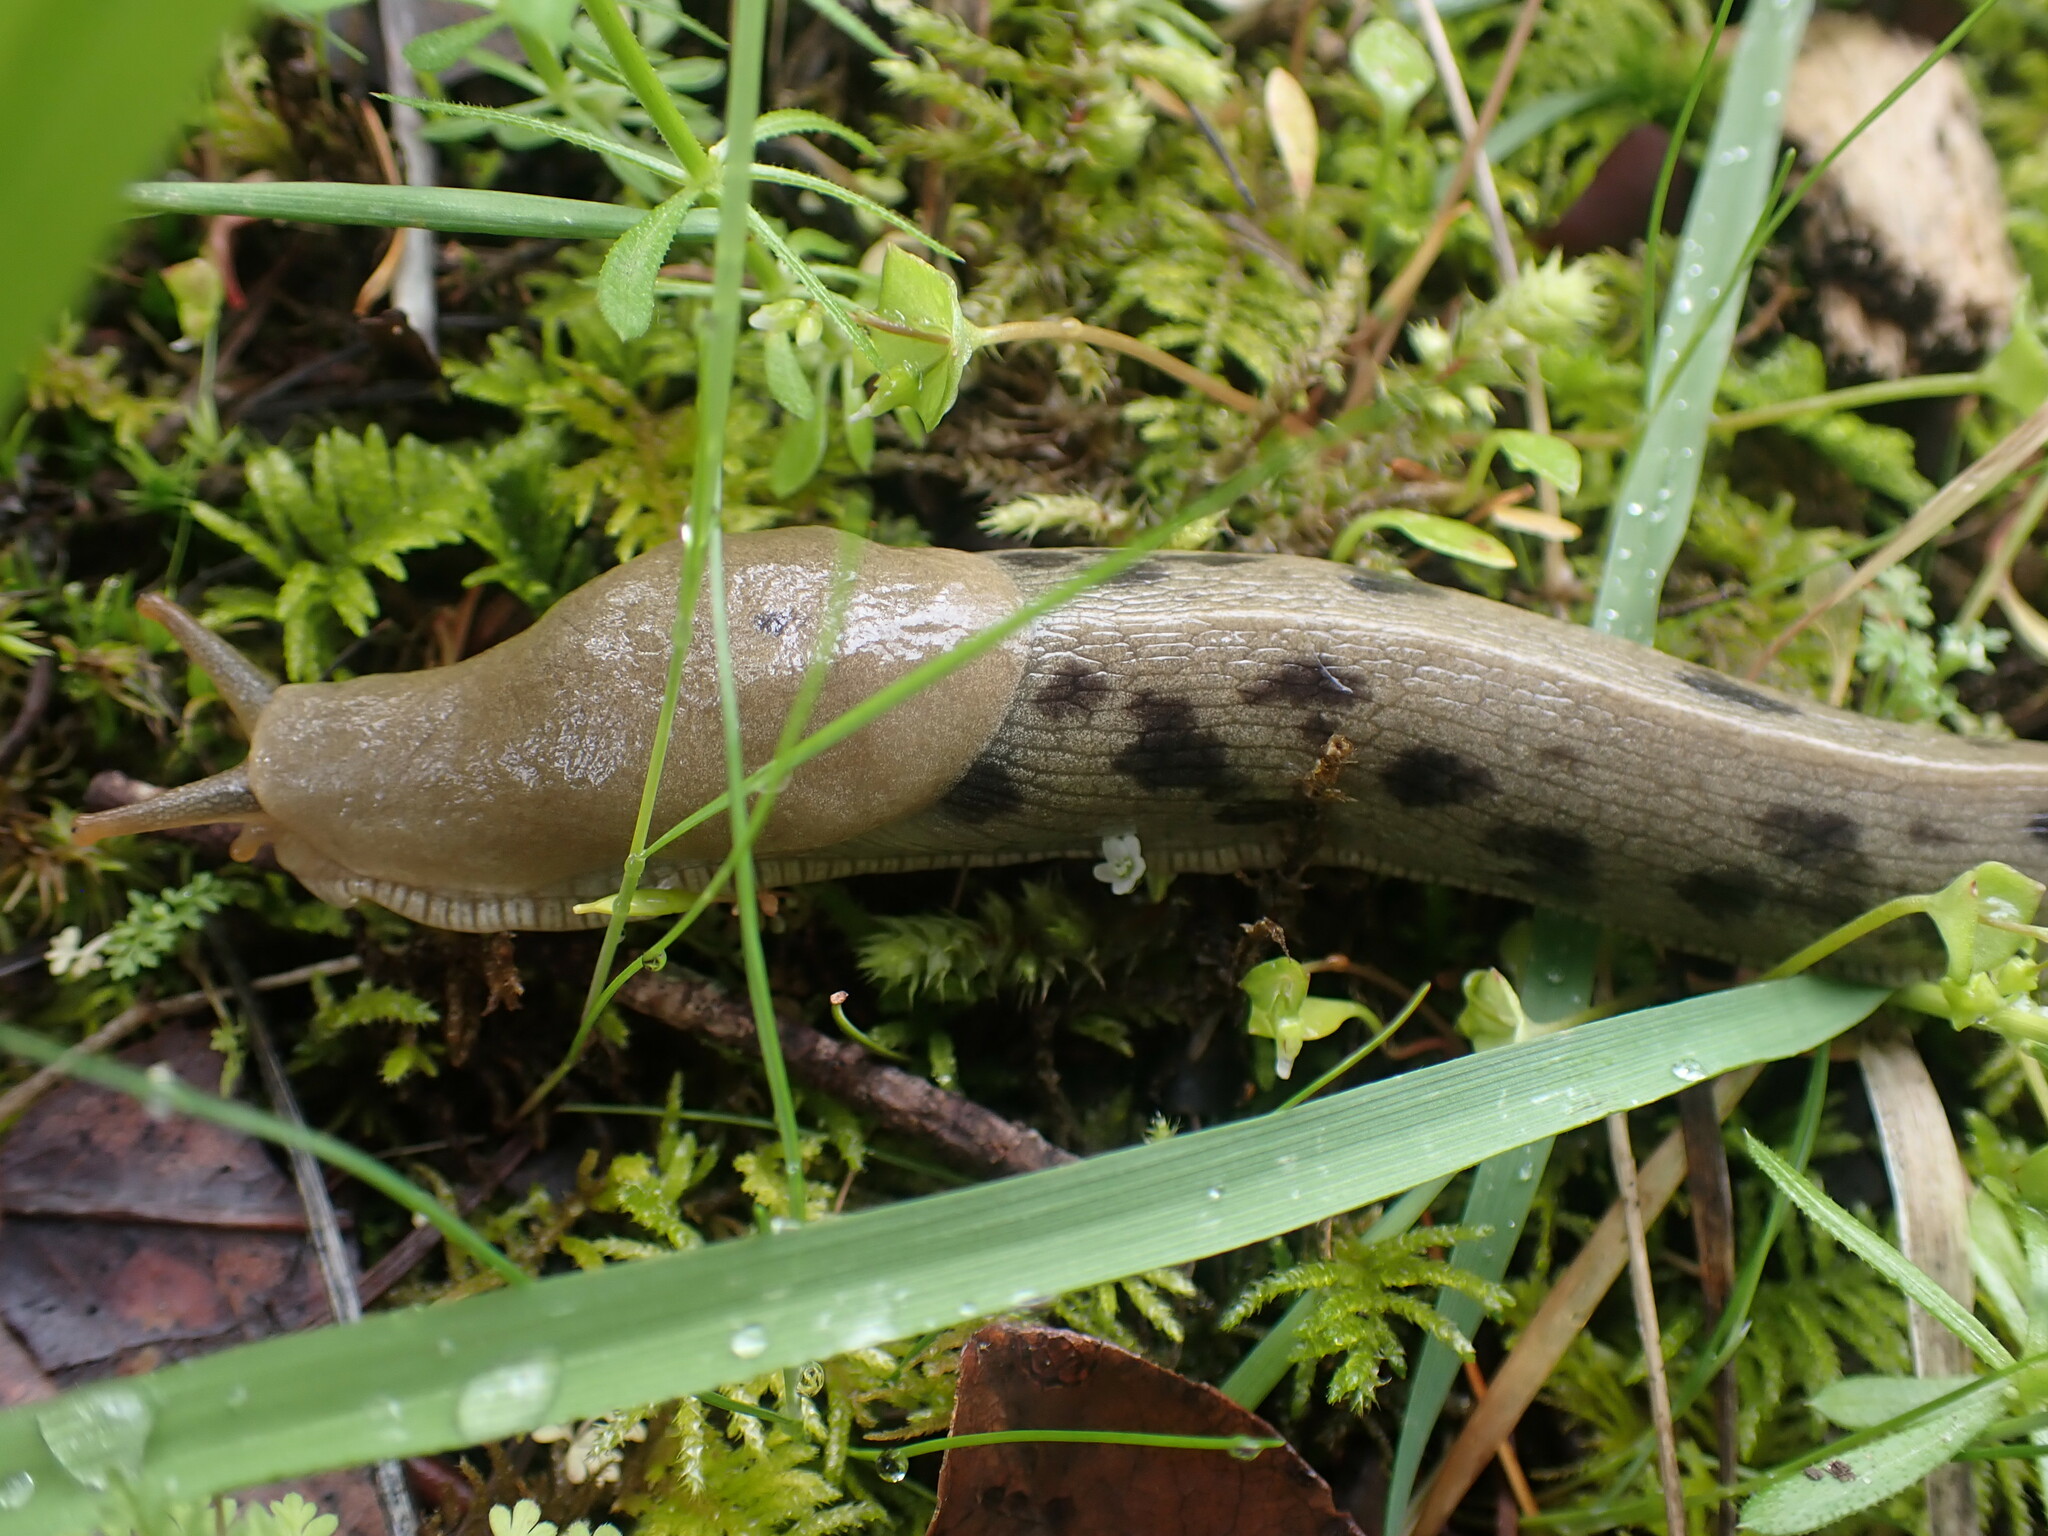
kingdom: Animalia
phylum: Mollusca
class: Gastropoda
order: Stylommatophora
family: Ariolimacidae
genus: Ariolimax
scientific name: Ariolimax columbianus
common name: Pacific banana slug
